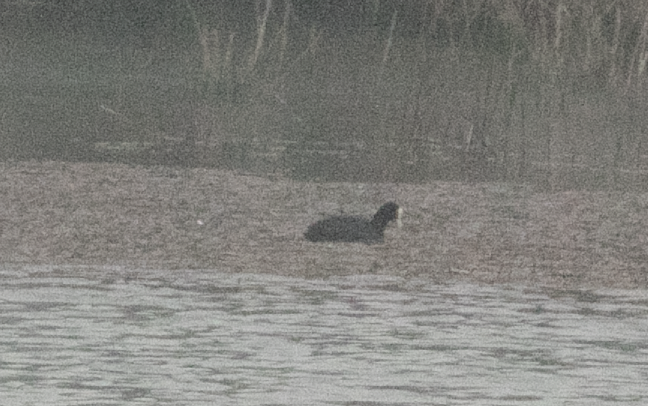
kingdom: Animalia
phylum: Chordata
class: Aves
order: Gruiformes
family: Rallidae
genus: Fulica
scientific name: Fulica atra
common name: Eurasian coot
